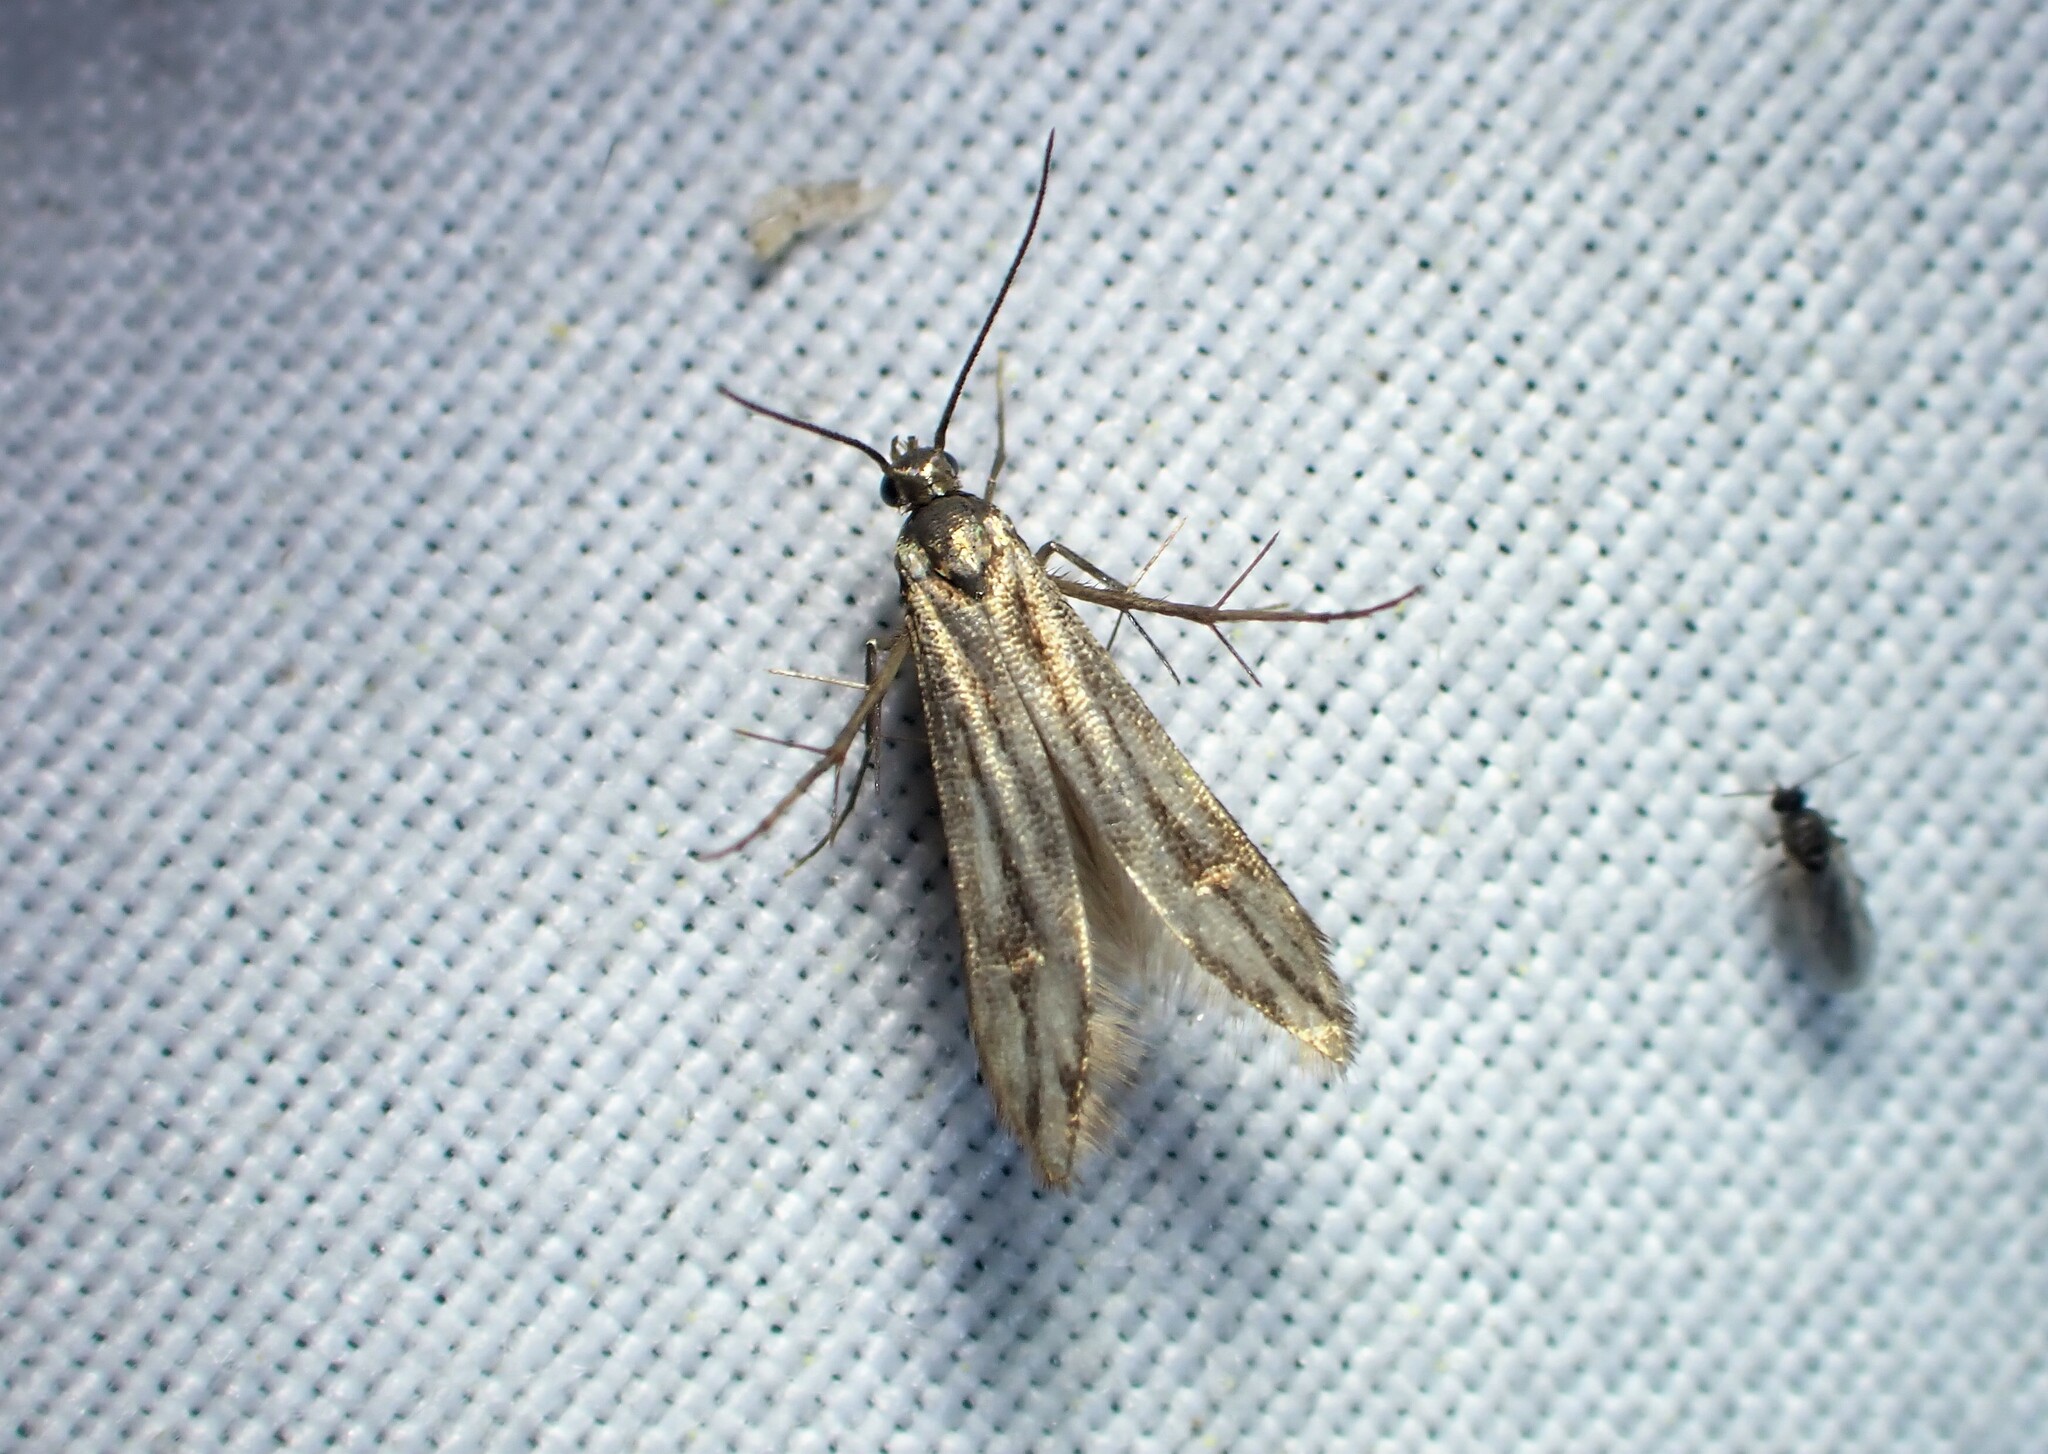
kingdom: Animalia
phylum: Arthropoda
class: Insecta
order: Lepidoptera
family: Schreckensteiniidae
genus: Schreckensteinia
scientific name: Schreckensteinia festaliella
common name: Blackberry skeletonizer
